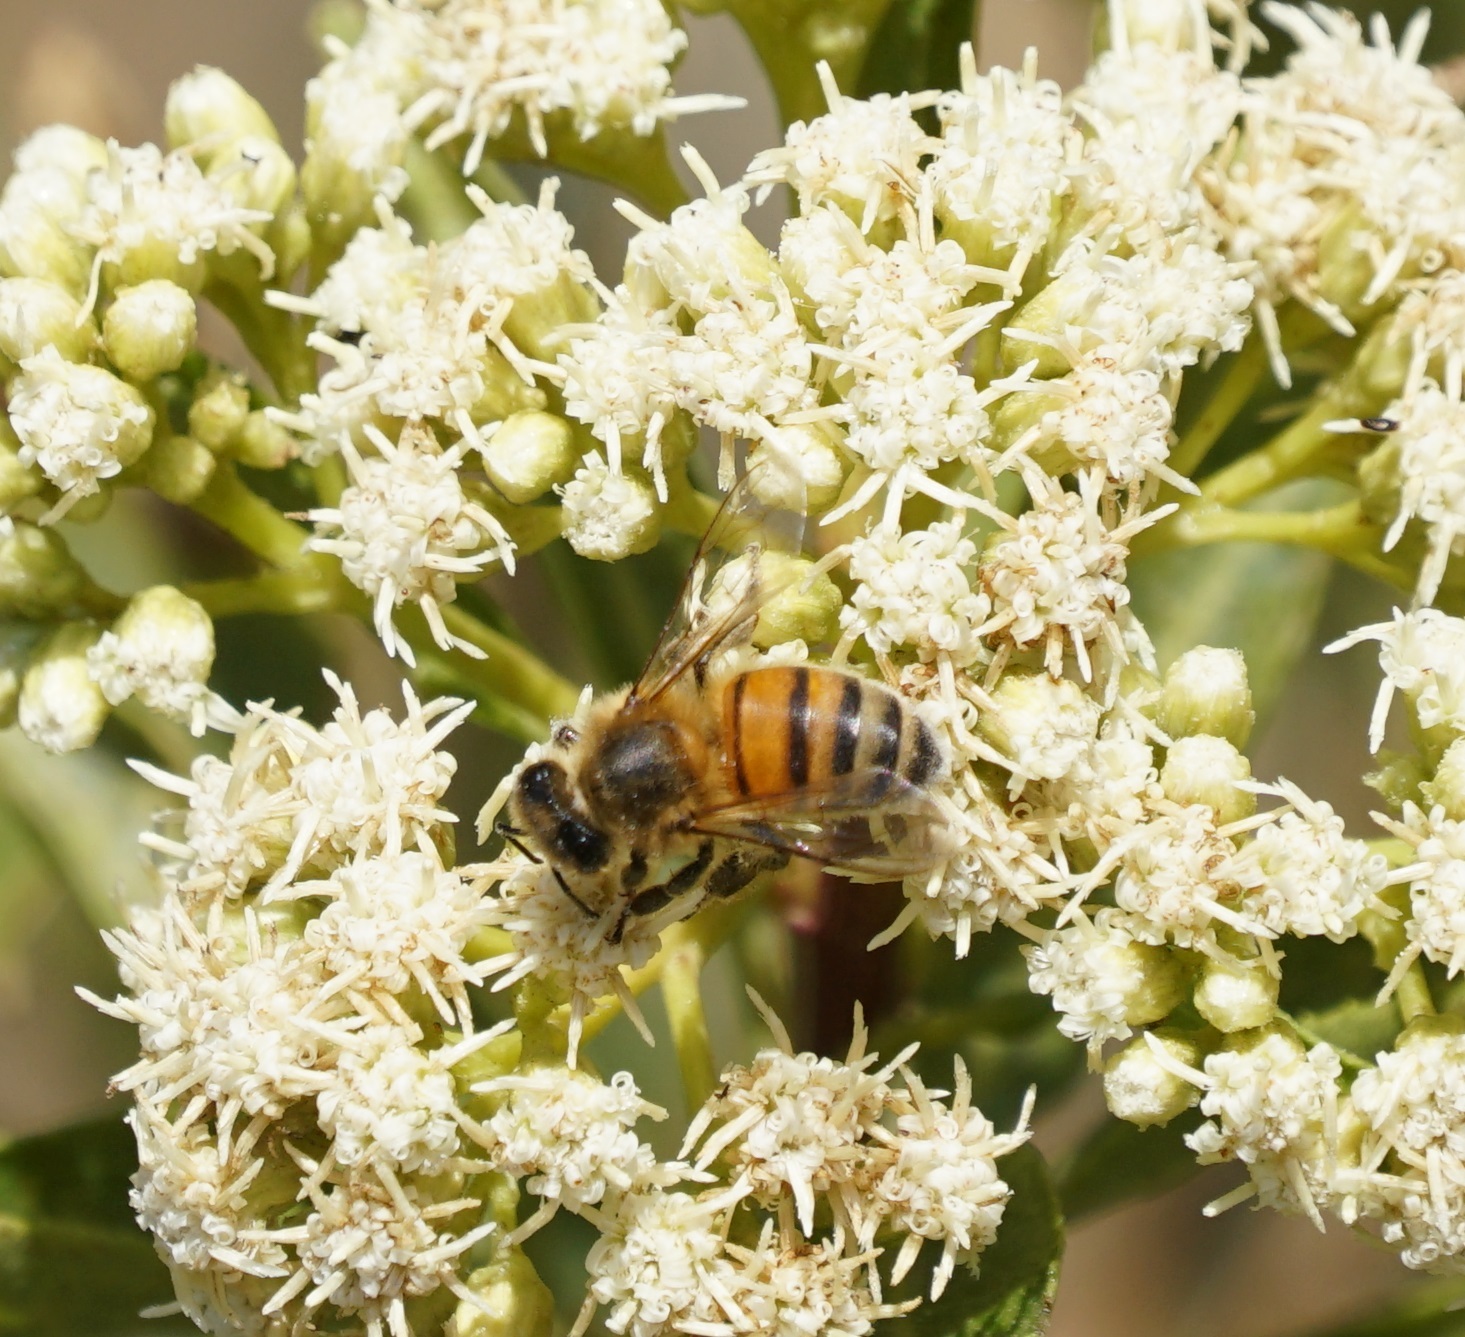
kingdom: Animalia
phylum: Arthropoda
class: Insecta
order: Hymenoptera
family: Apidae
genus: Apis
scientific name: Apis mellifera
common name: Honey bee
